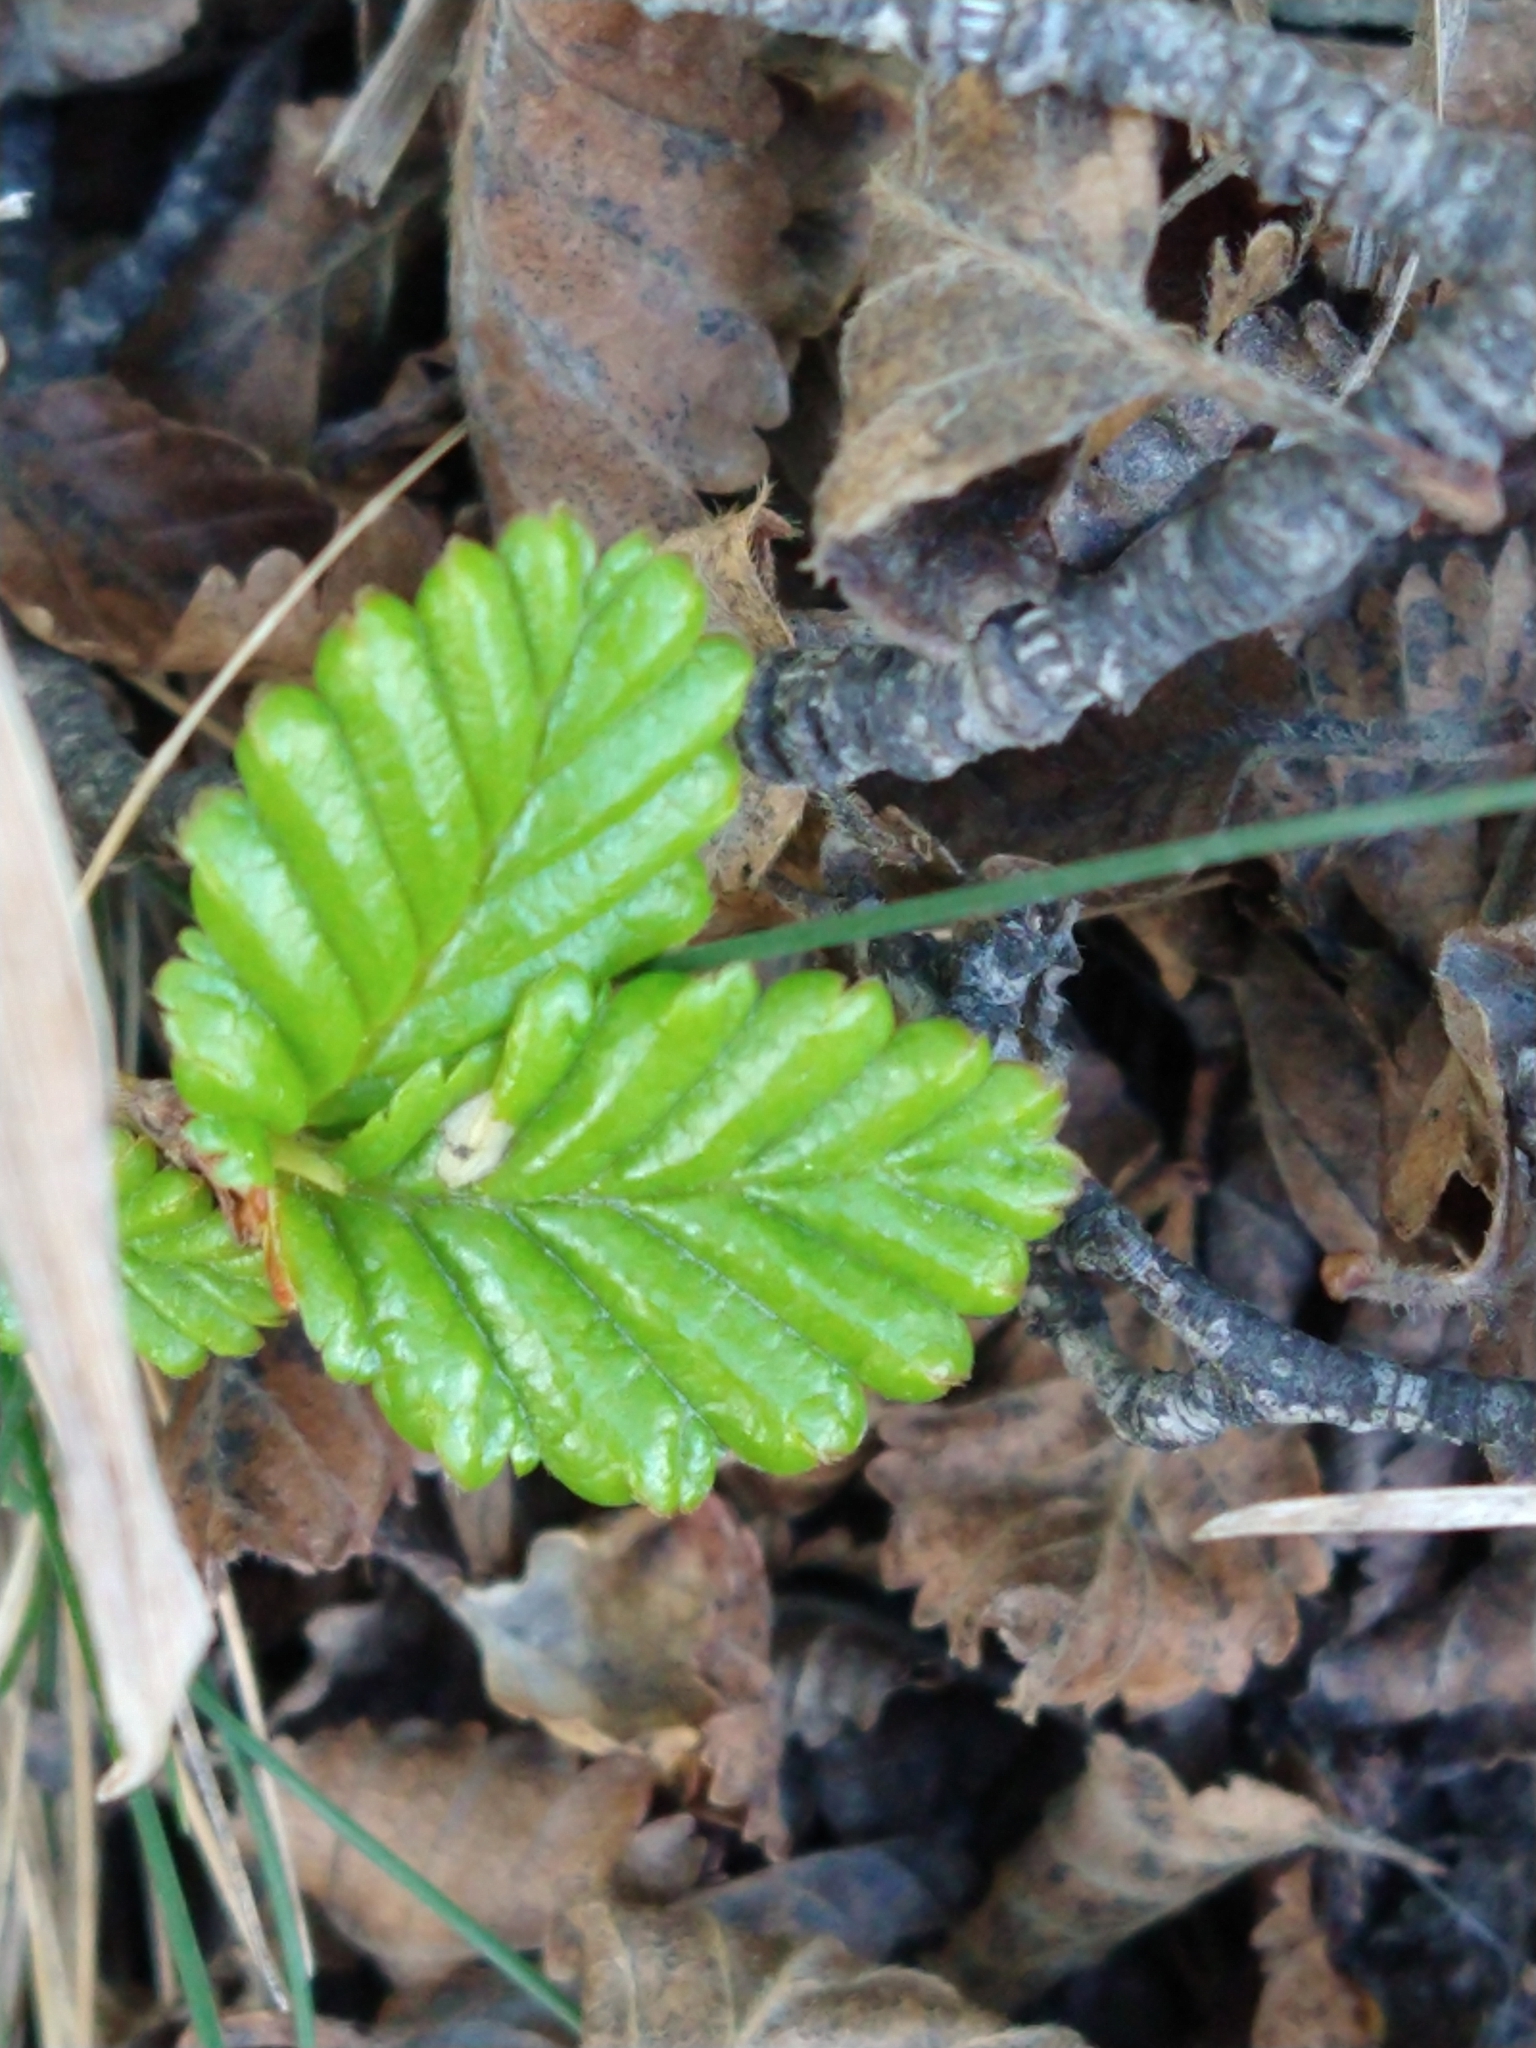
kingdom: Plantae
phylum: Tracheophyta
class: Magnoliopsida
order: Fagales
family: Nothofagaceae
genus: Nothofagus
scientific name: Nothofagus pumilio
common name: Lenga beech
